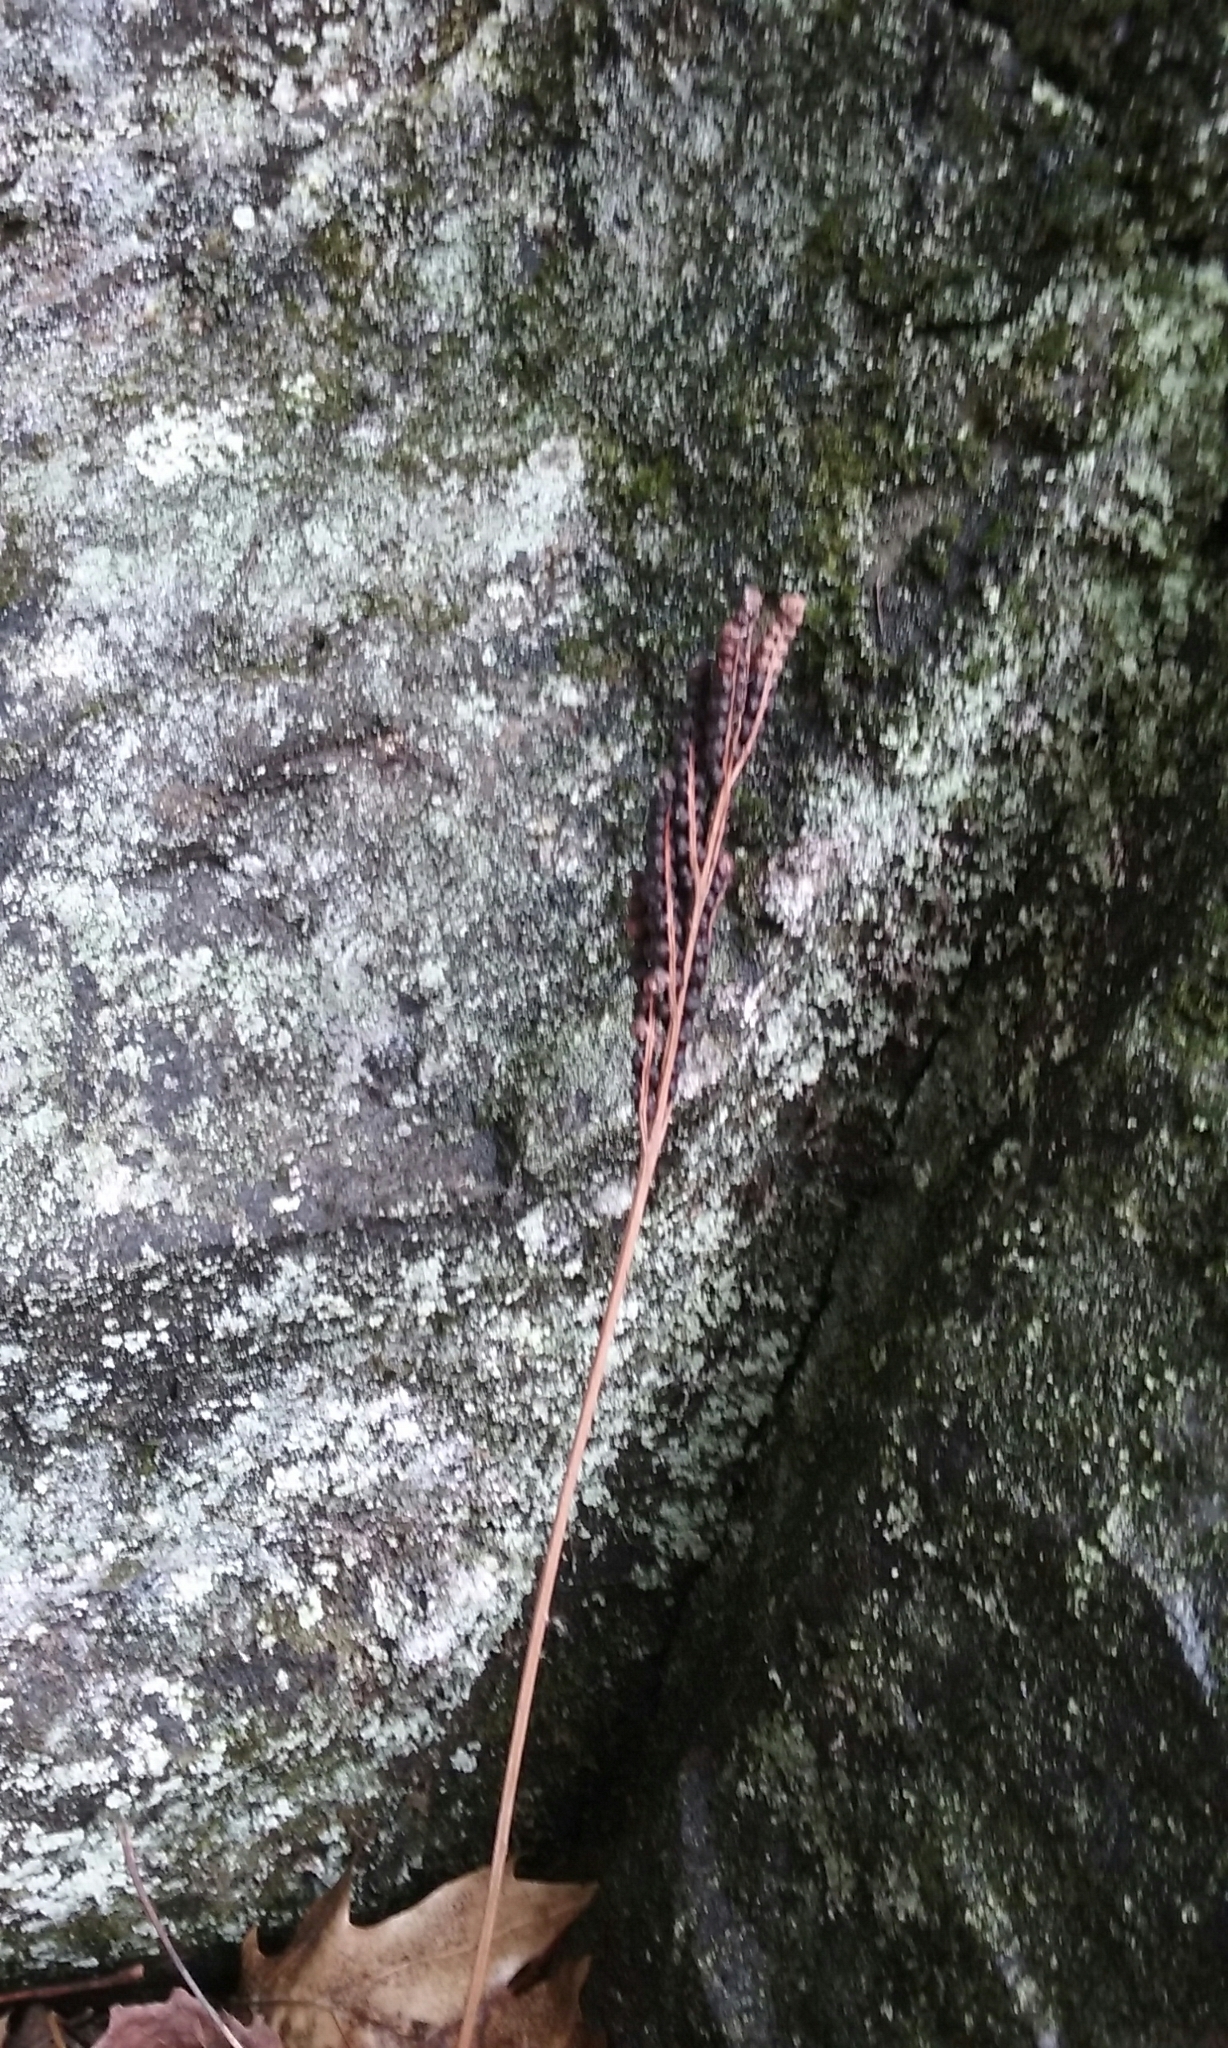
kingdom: Plantae
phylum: Tracheophyta
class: Polypodiopsida
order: Polypodiales
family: Onocleaceae
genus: Onoclea
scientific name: Onoclea sensibilis
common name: Sensitive fern
